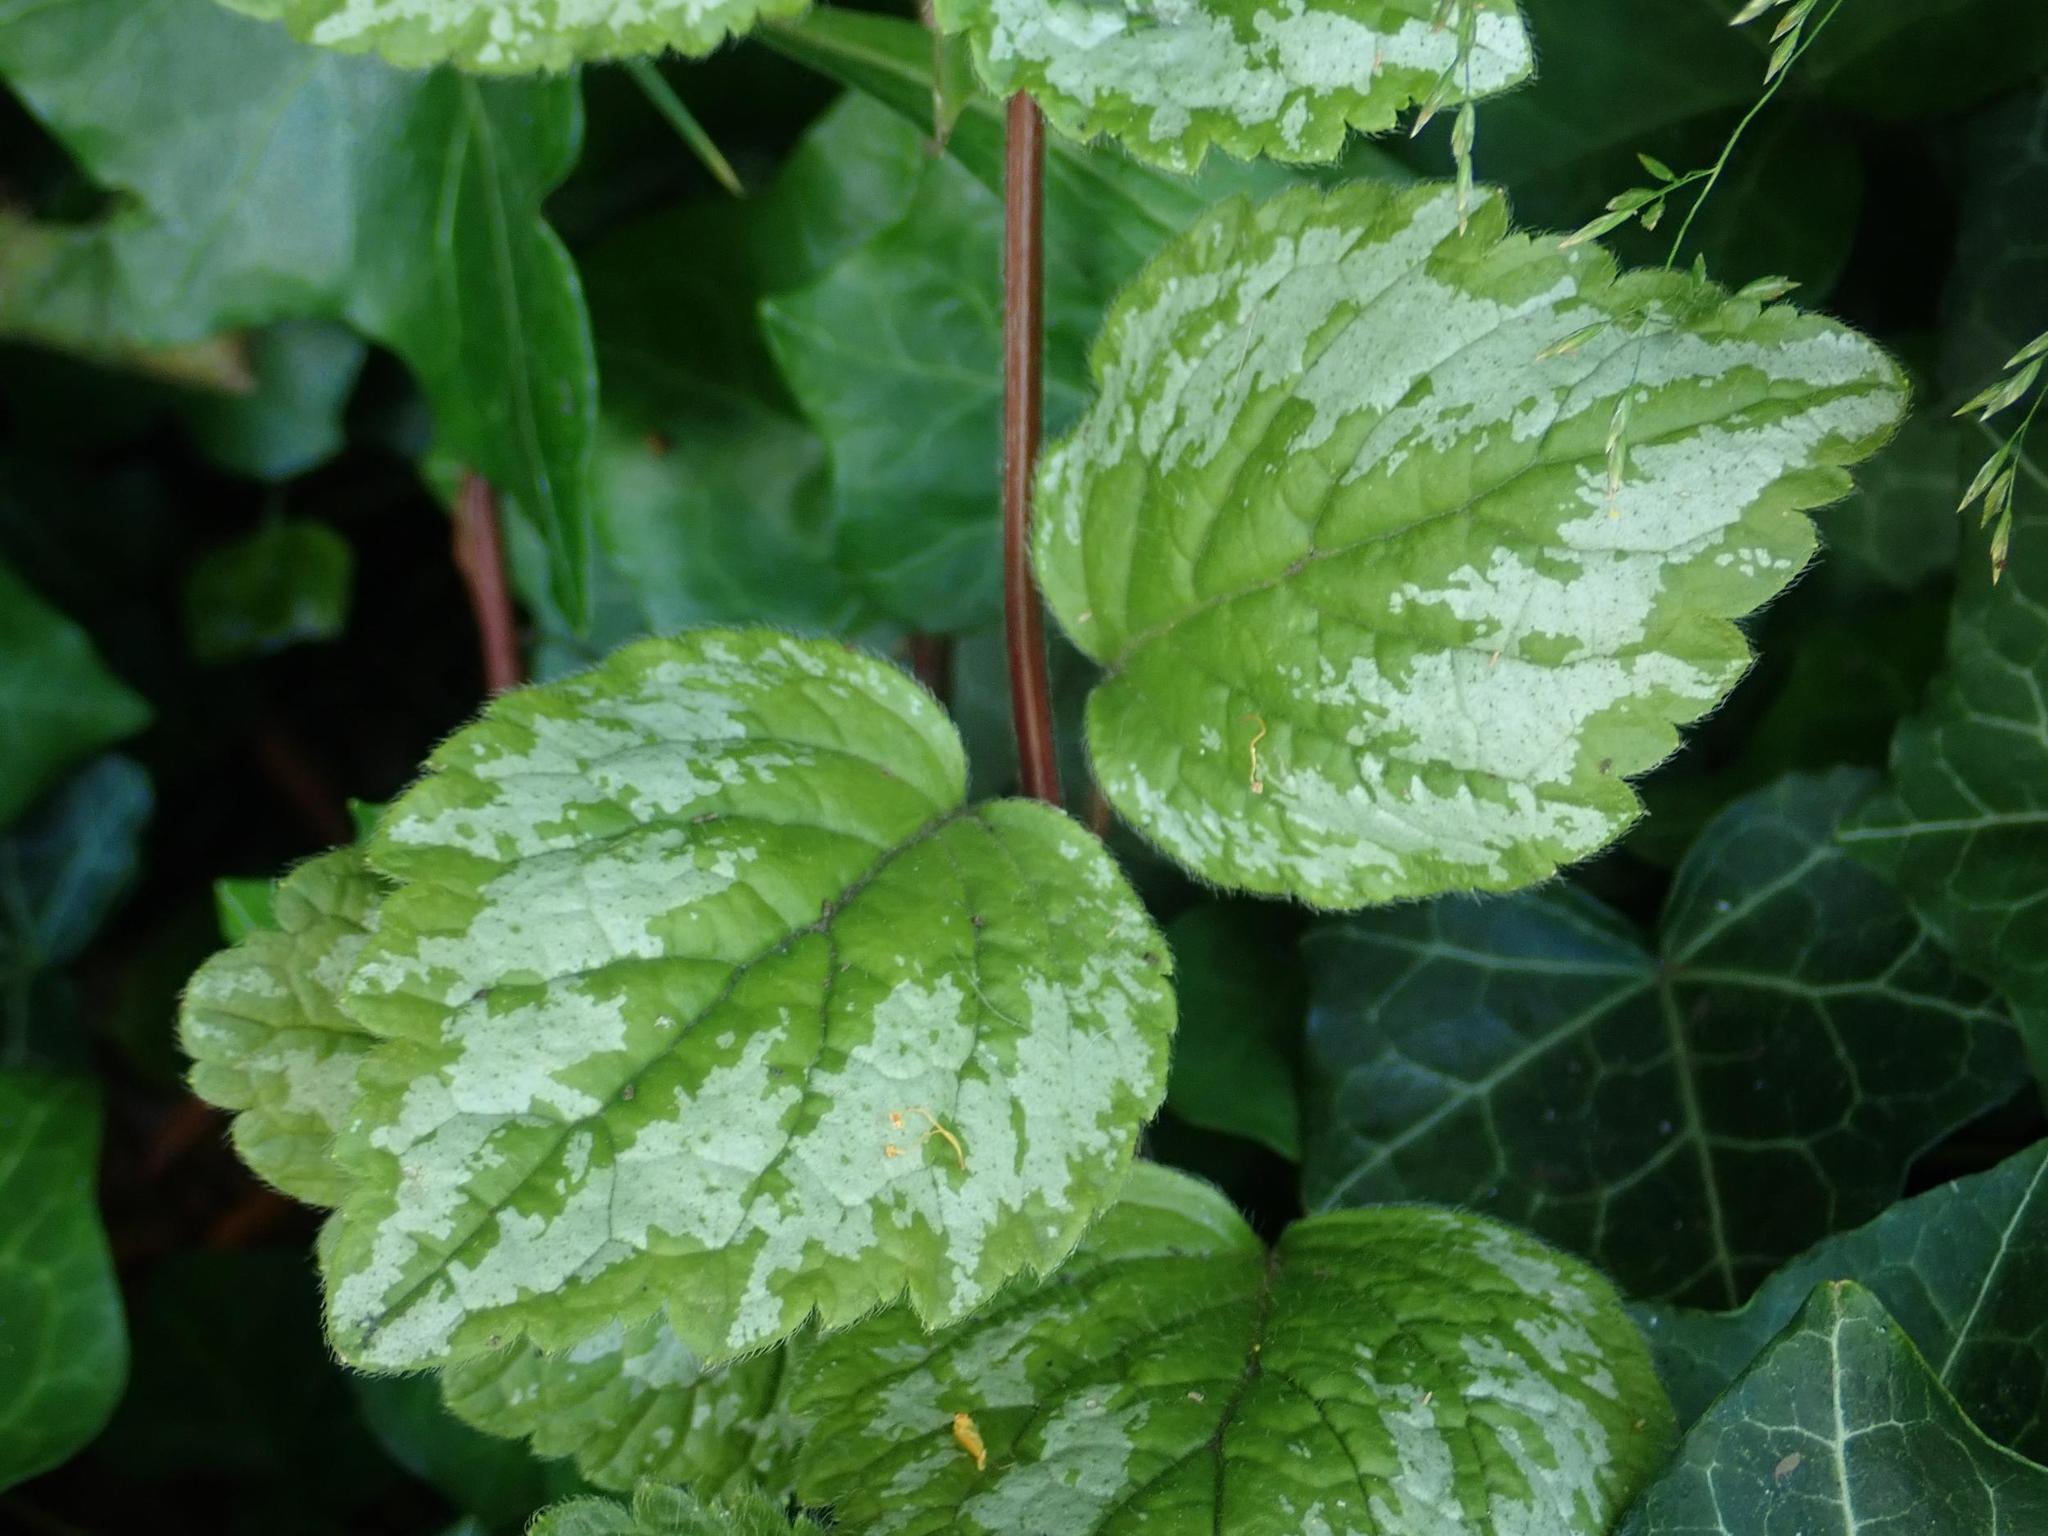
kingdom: Plantae
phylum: Tracheophyta
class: Magnoliopsida
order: Lamiales
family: Lamiaceae
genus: Lamium
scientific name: Lamium galeobdolon
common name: Yellow archangel
